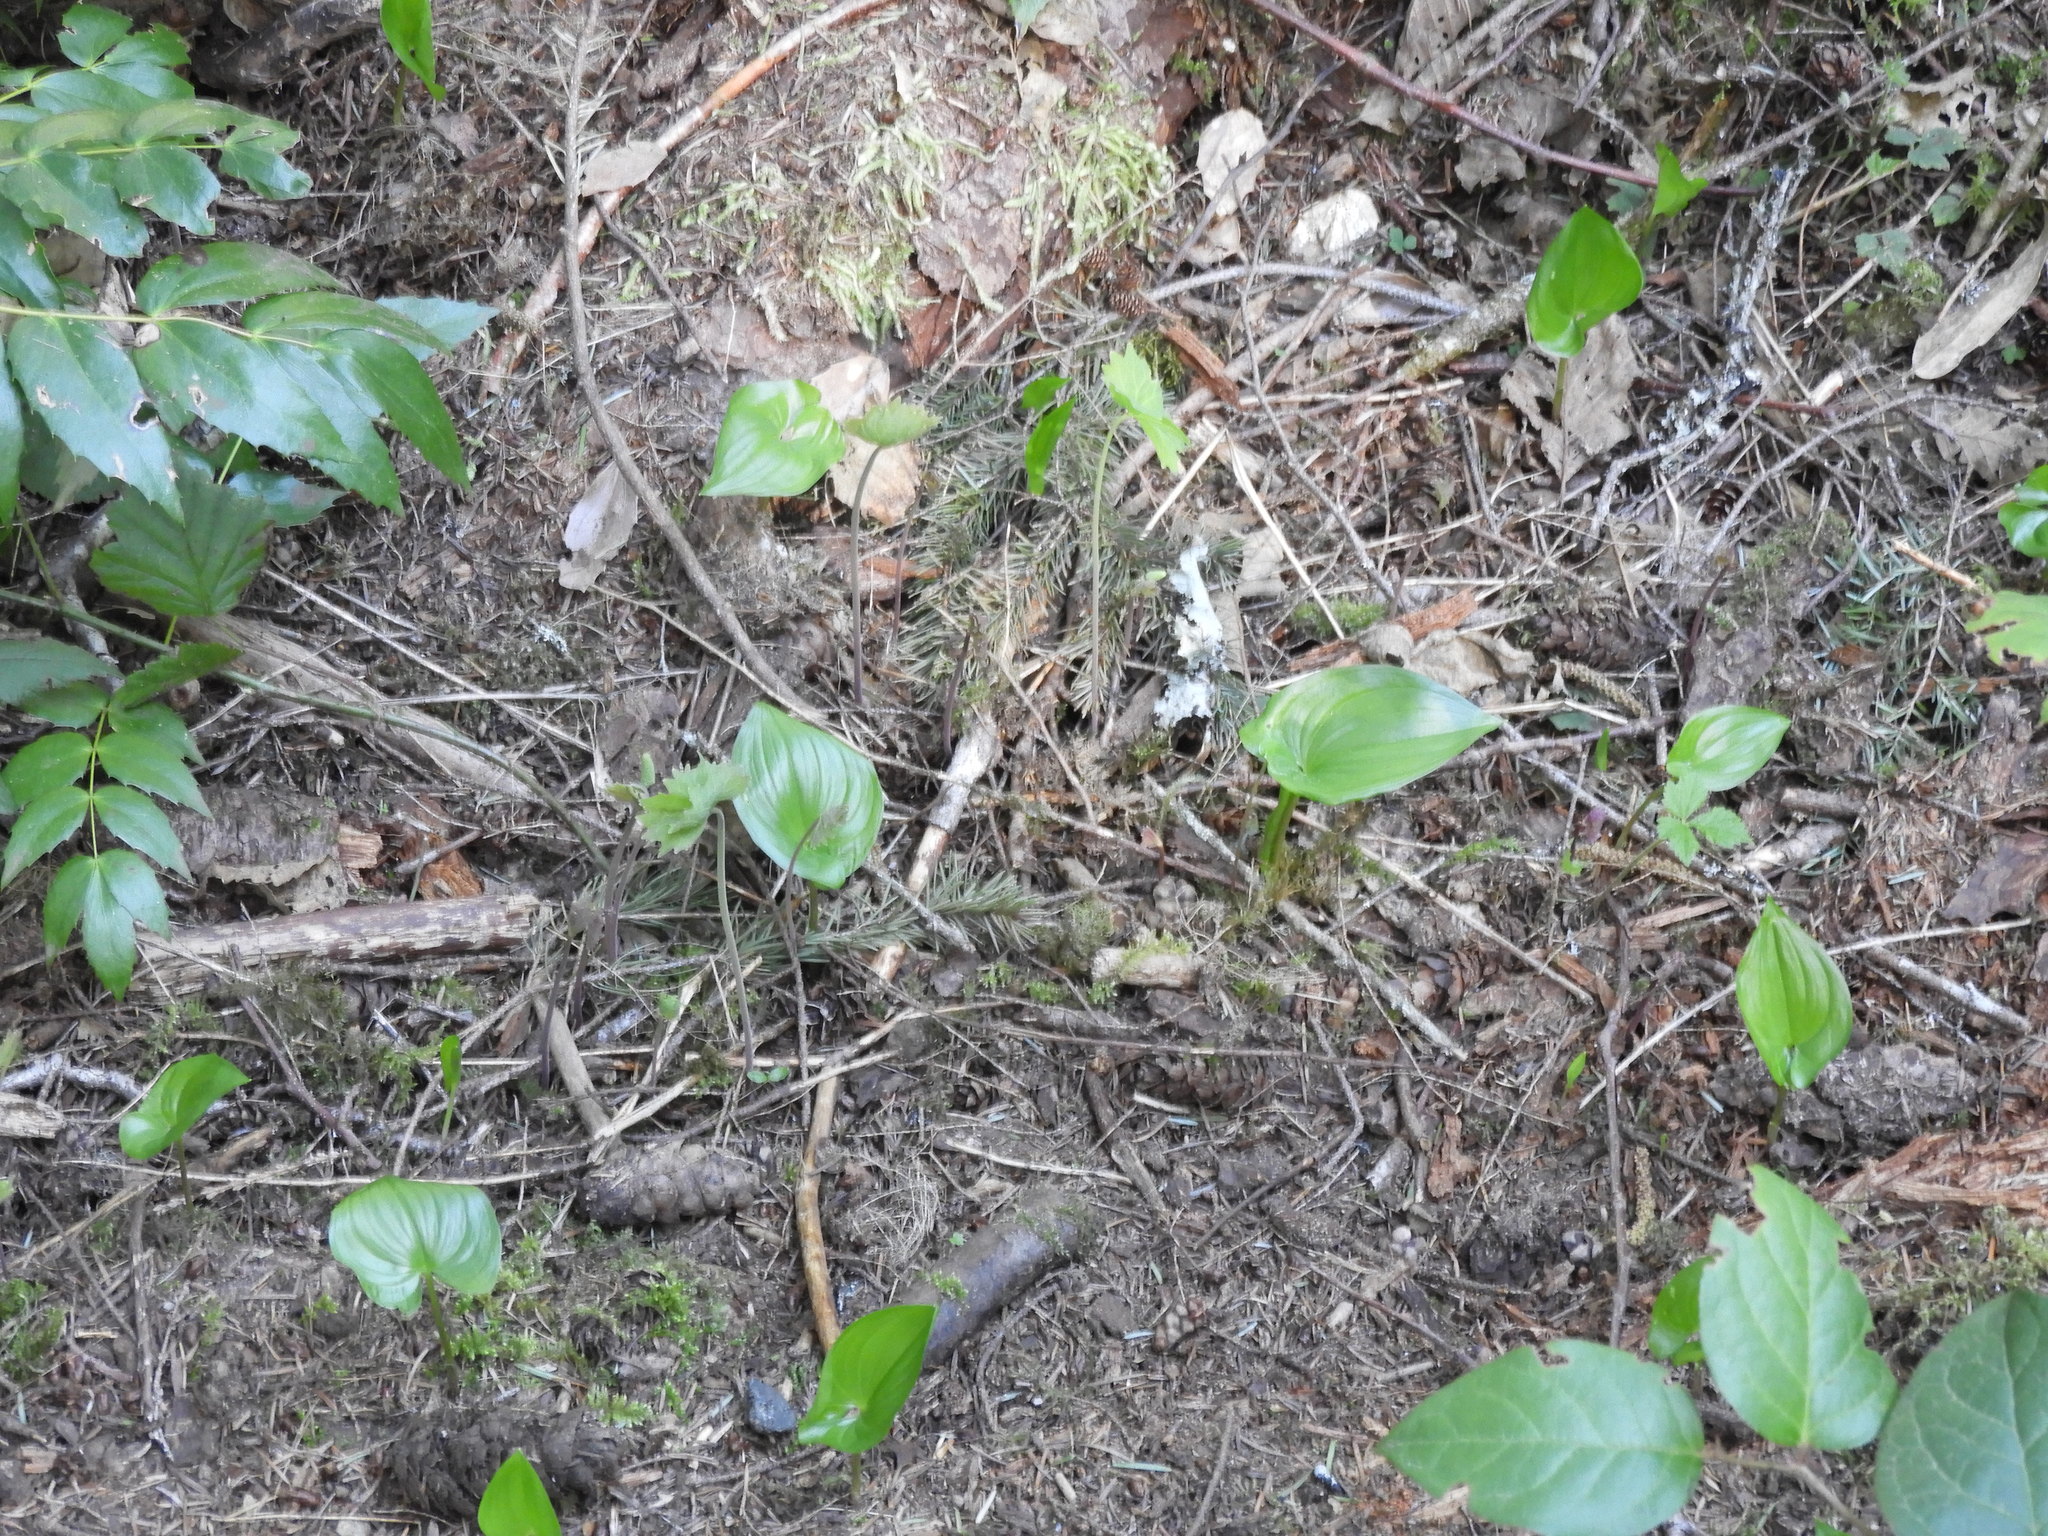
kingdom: Plantae
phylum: Tracheophyta
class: Liliopsida
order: Asparagales
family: Asparagaceae
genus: Maianthemum
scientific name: Maianthemum dilatatum
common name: False lily-of-the-valley
